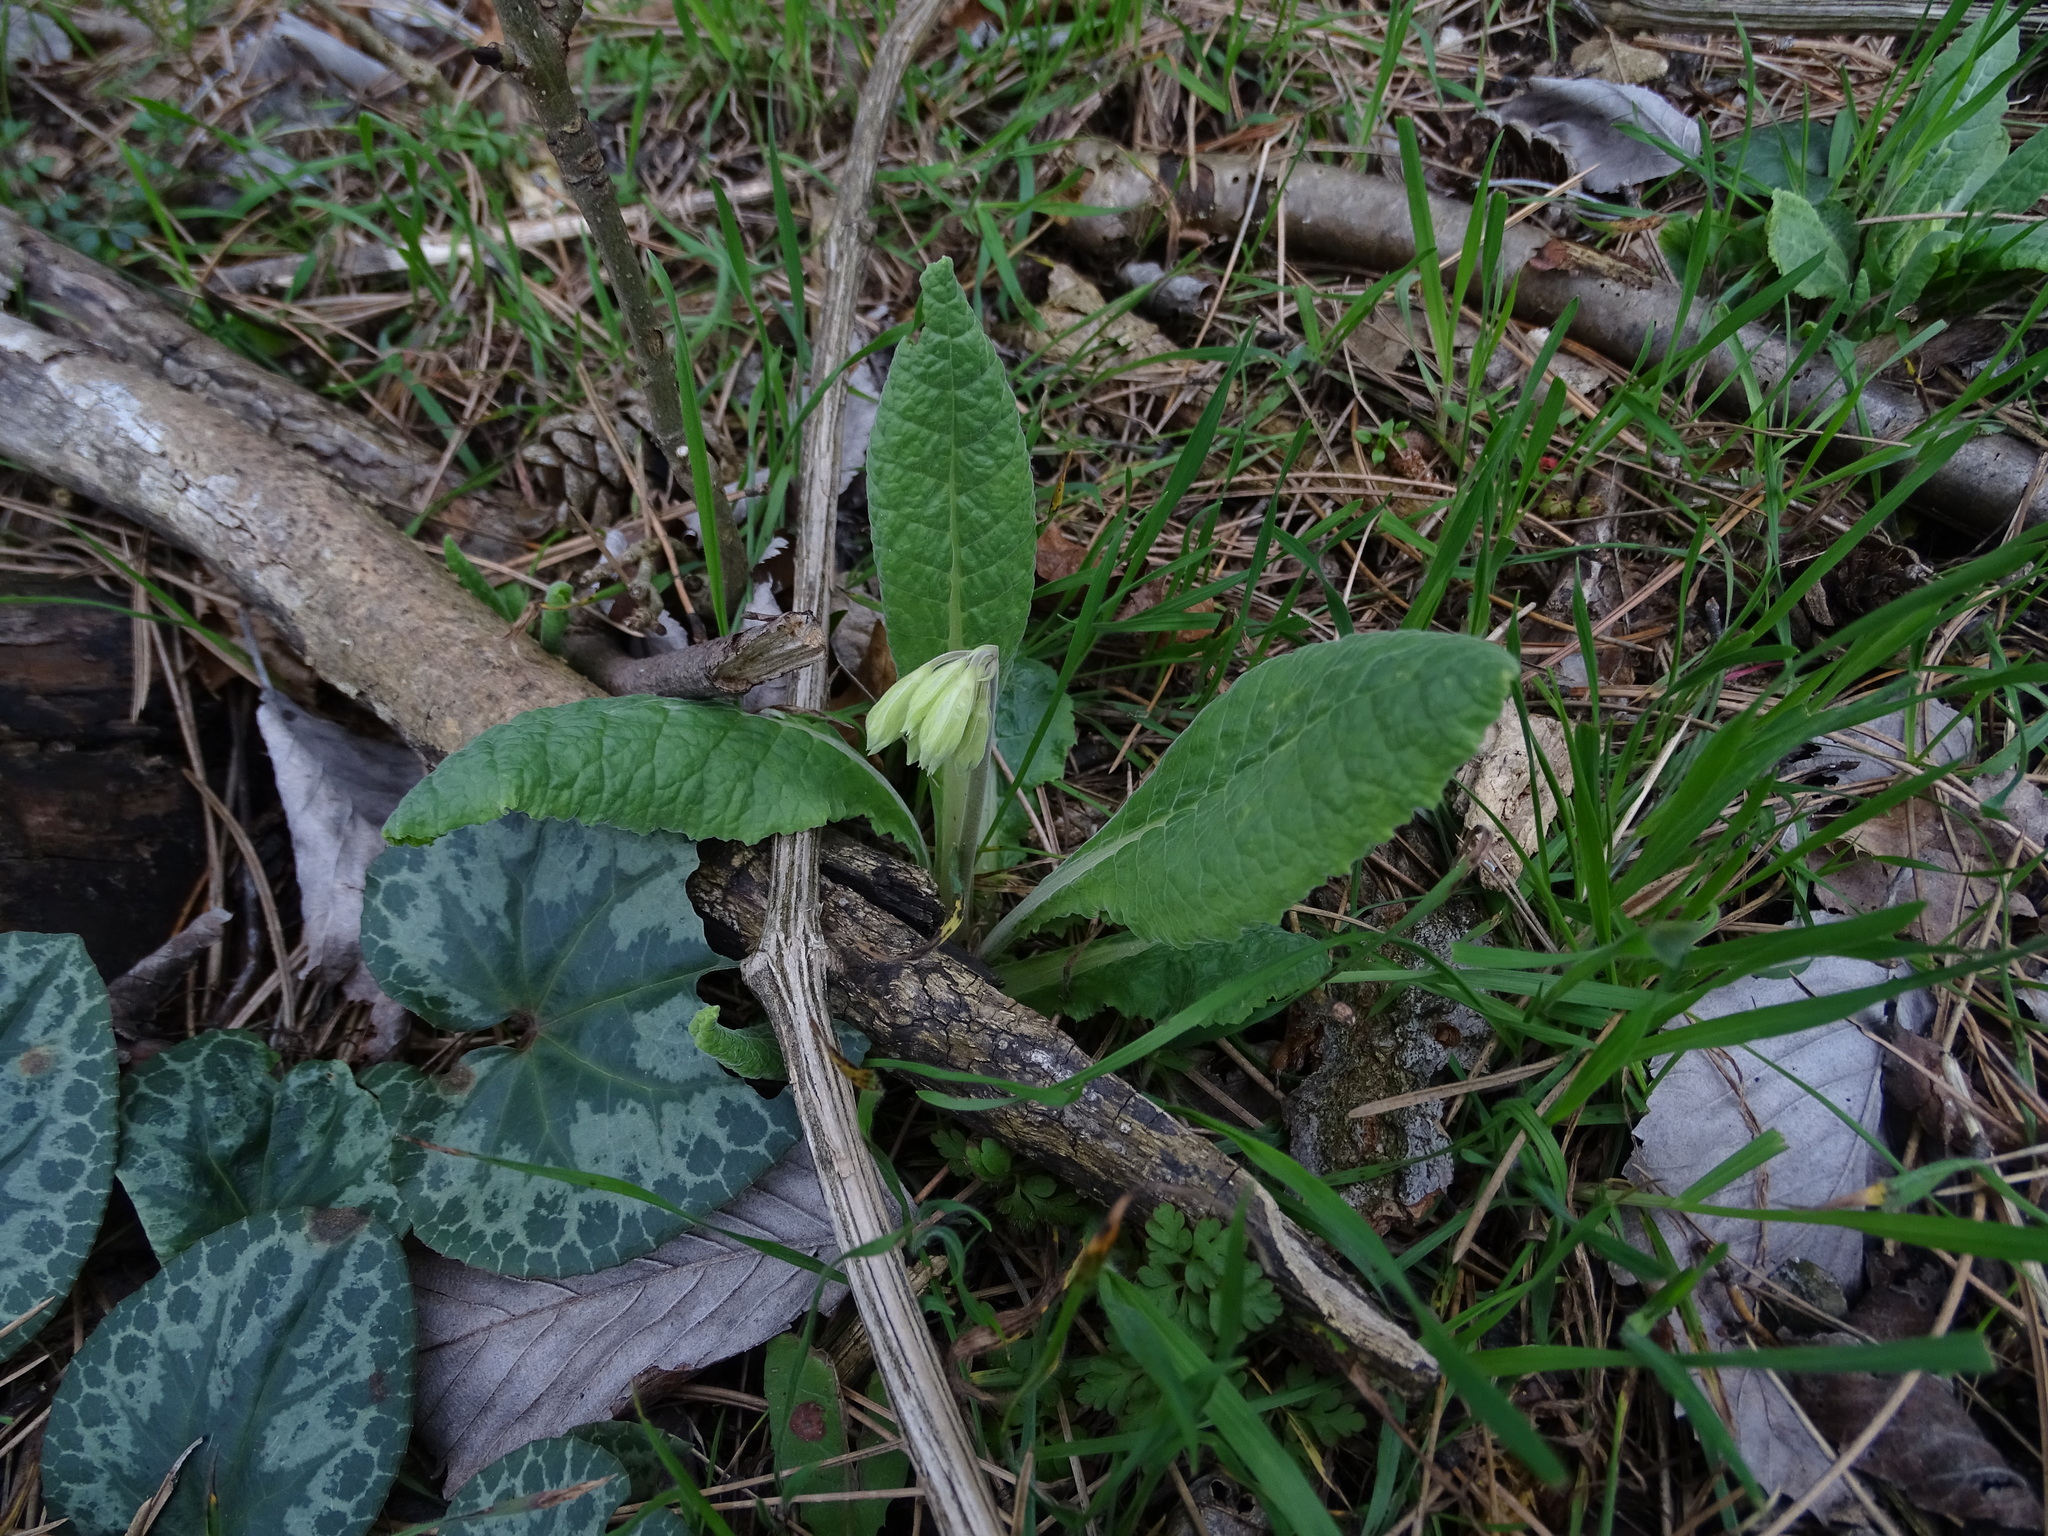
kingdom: Plantae
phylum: Tracheophyta
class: Magnoliopsida
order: Ericales
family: Primulaceae
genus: Primula
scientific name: Primula veris
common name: Cowslip
